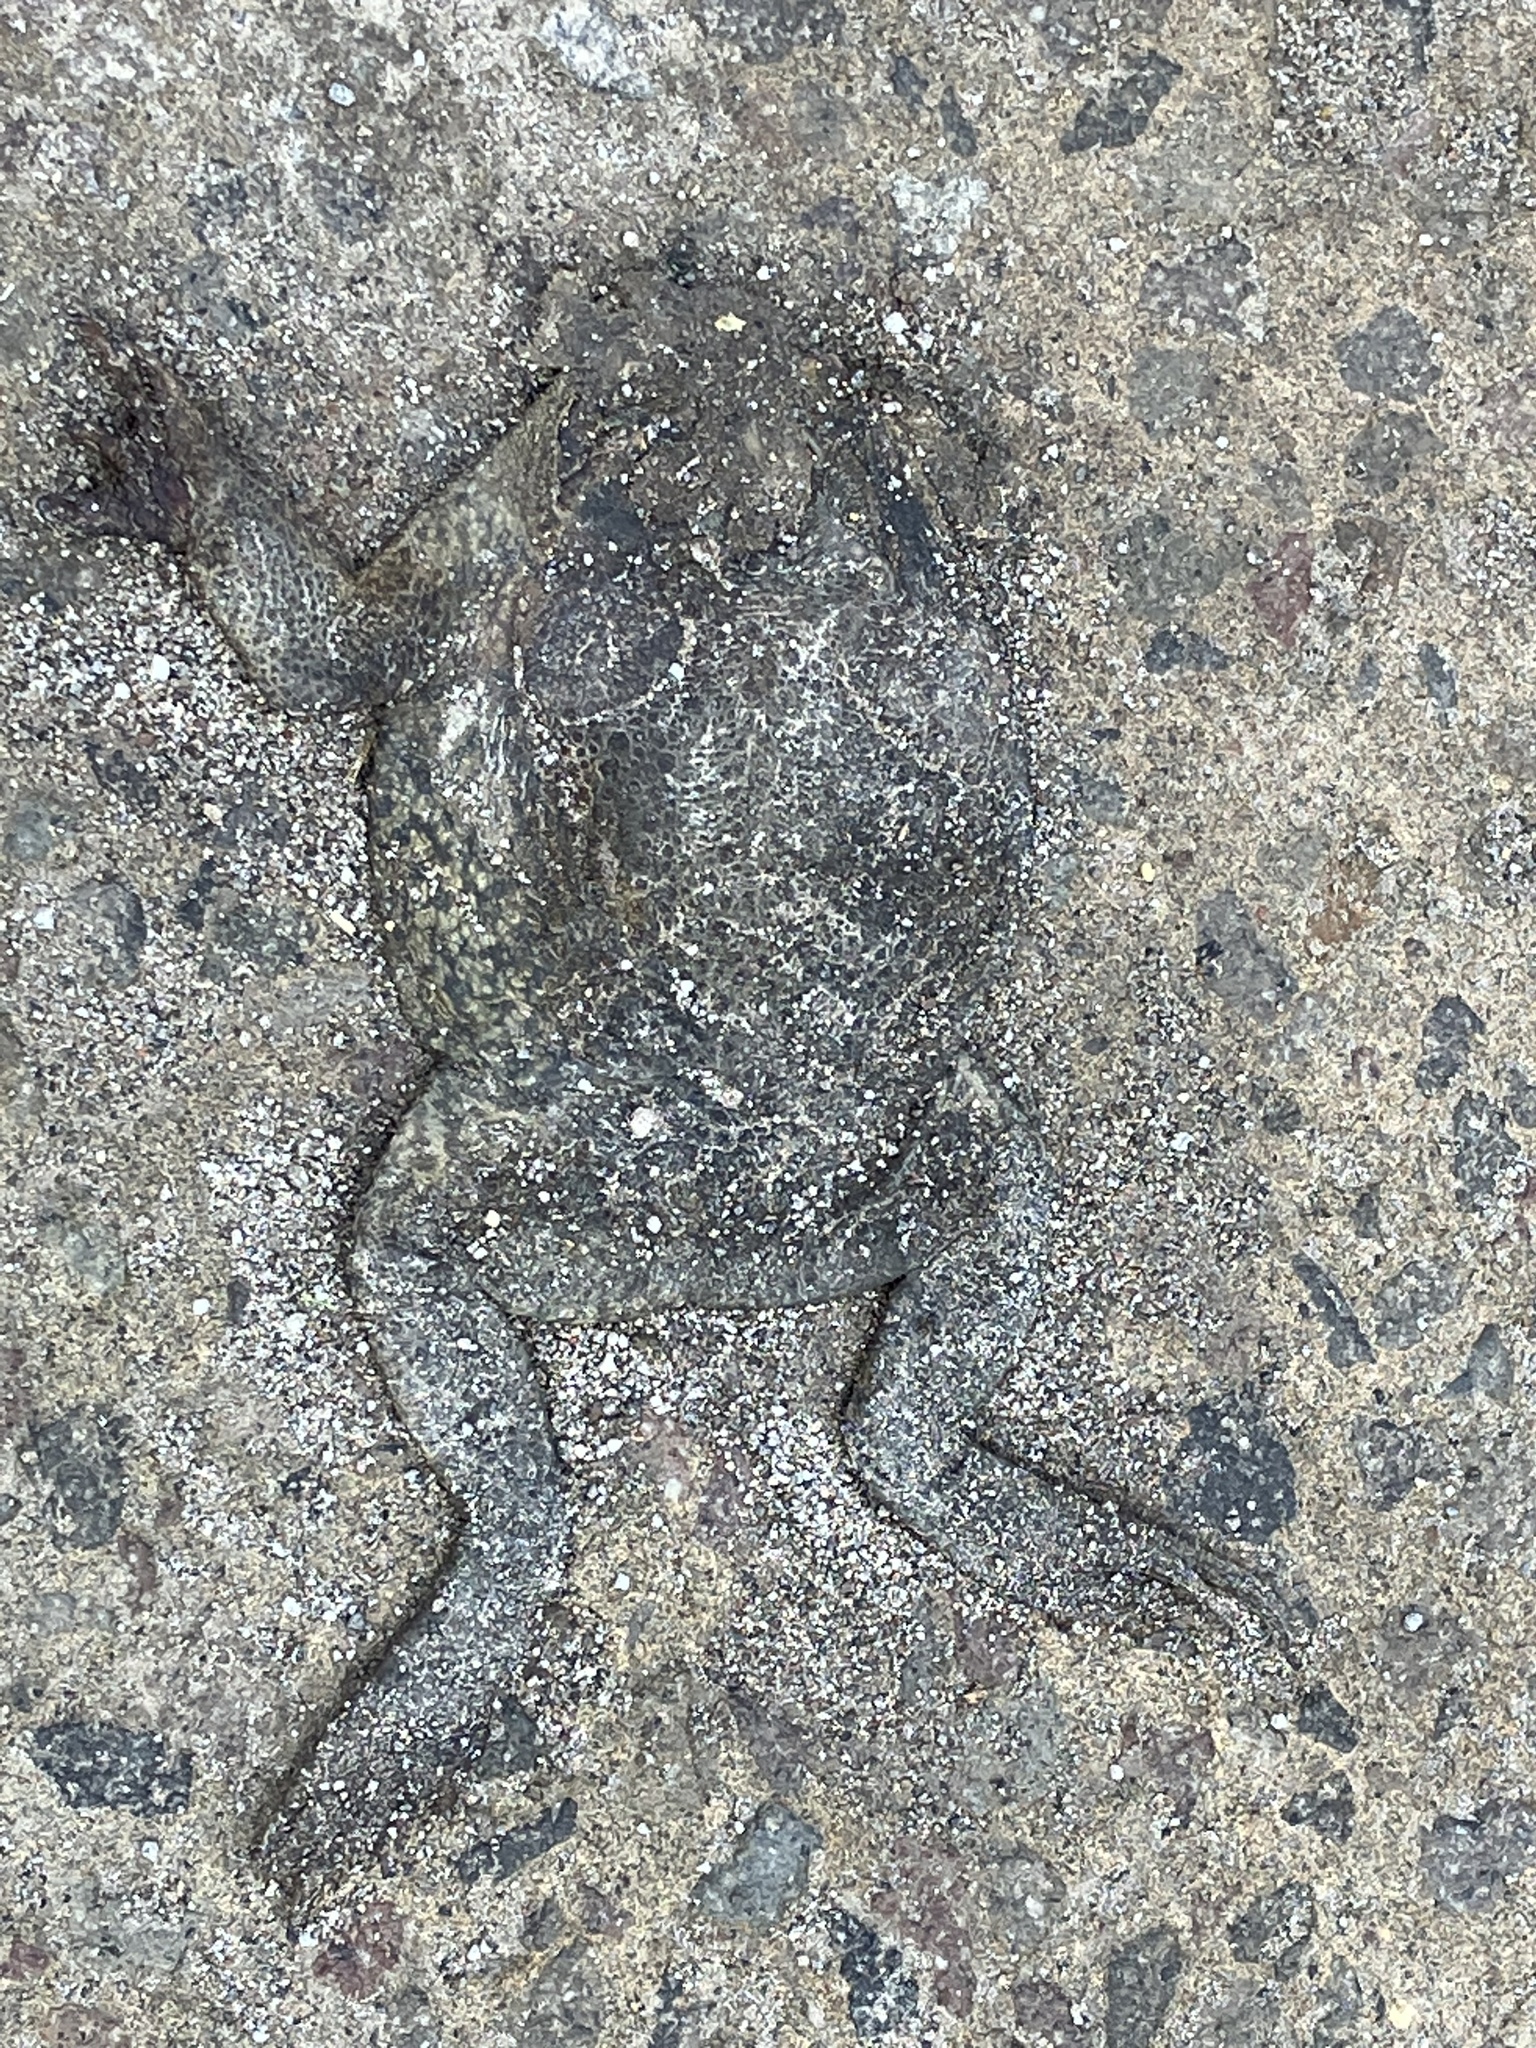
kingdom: Animalia
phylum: Chordata
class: Amphibia
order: Anura
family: Bufonidae
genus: Rhinella
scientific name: Rhinella marina
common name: Cane toad
